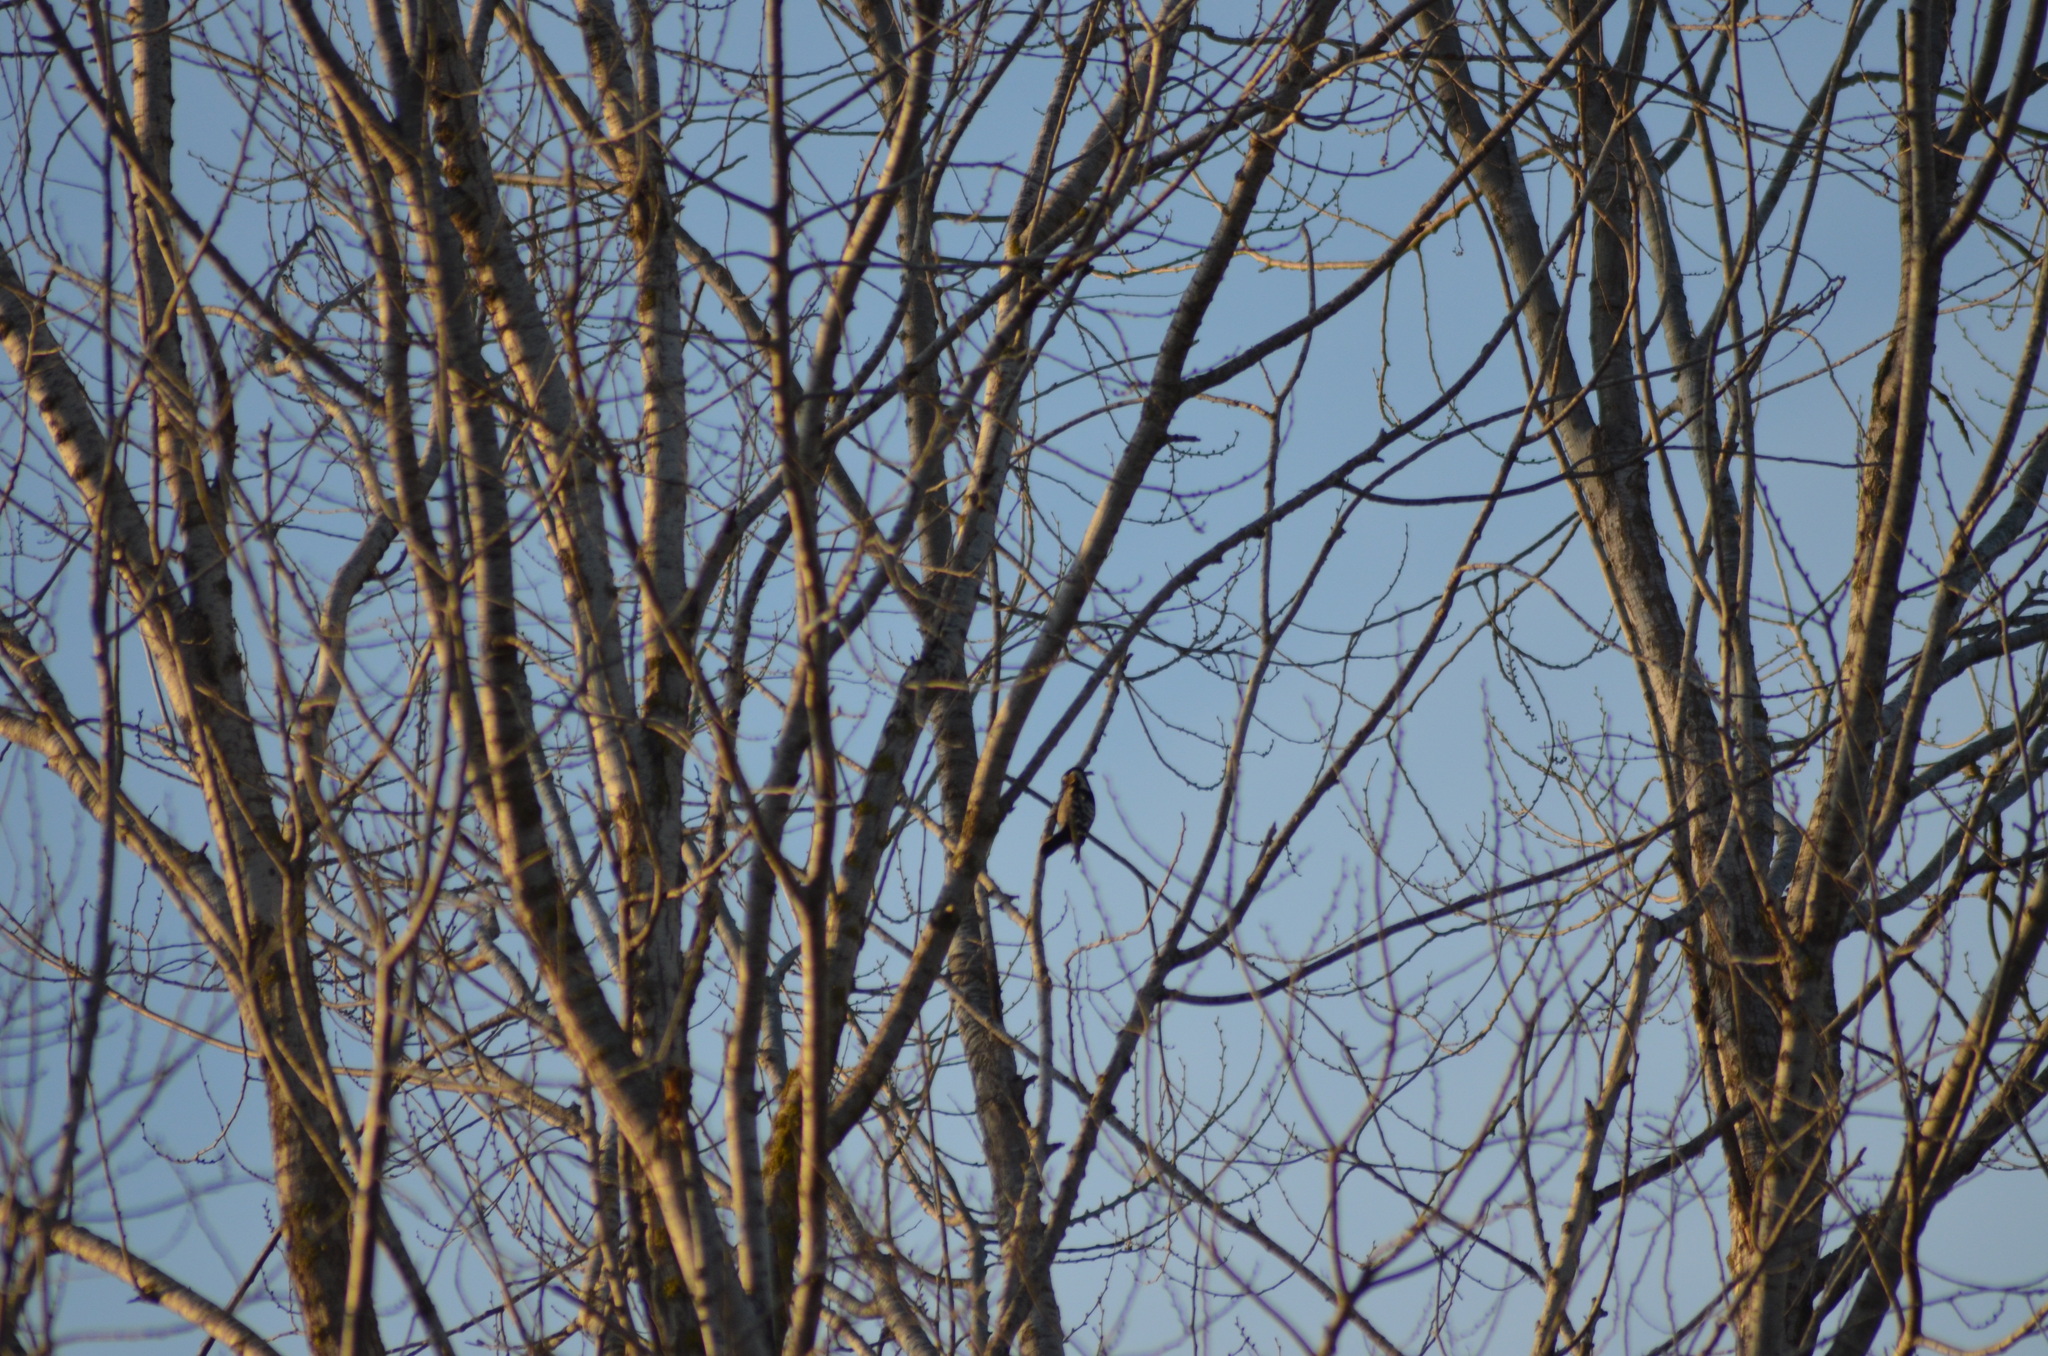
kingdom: Animalia
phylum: Chordata
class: Aves
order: Piciformes
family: Picidae
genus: Dryobates
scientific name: Dryobates minor
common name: Lesser spotted woodpecker
